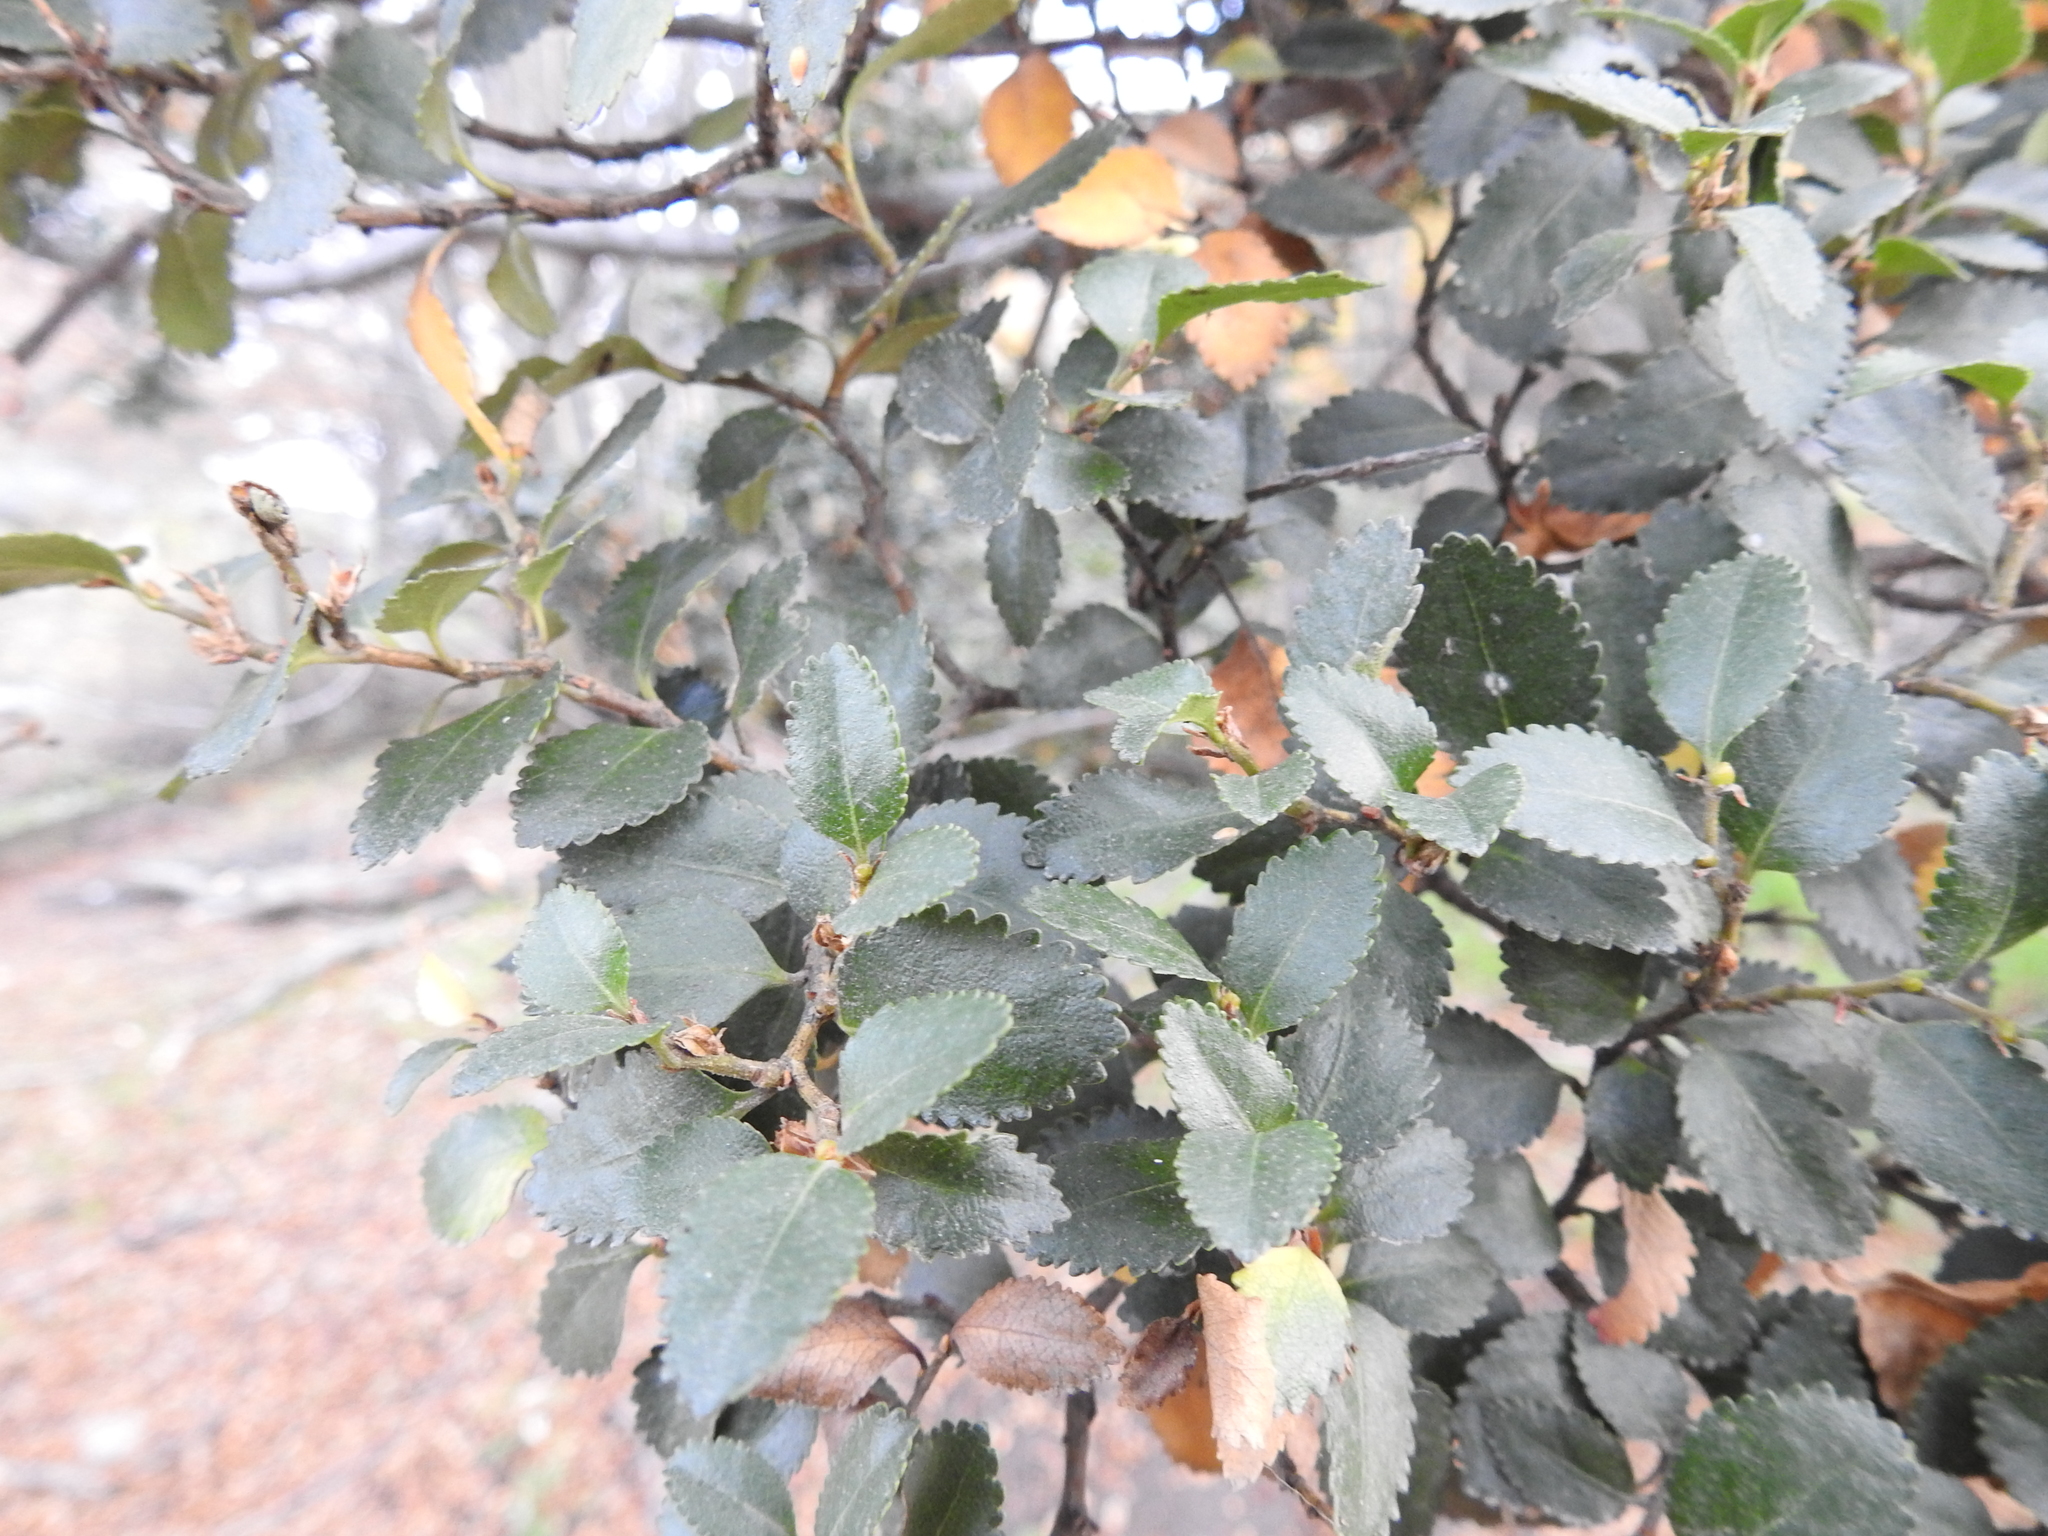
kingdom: Plantae
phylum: Tracheophyta
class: Magnoliopsida
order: Fagales
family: Nothofagaceae
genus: Nothofagus
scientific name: Nothofagus betuloides
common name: Magellan's beech
